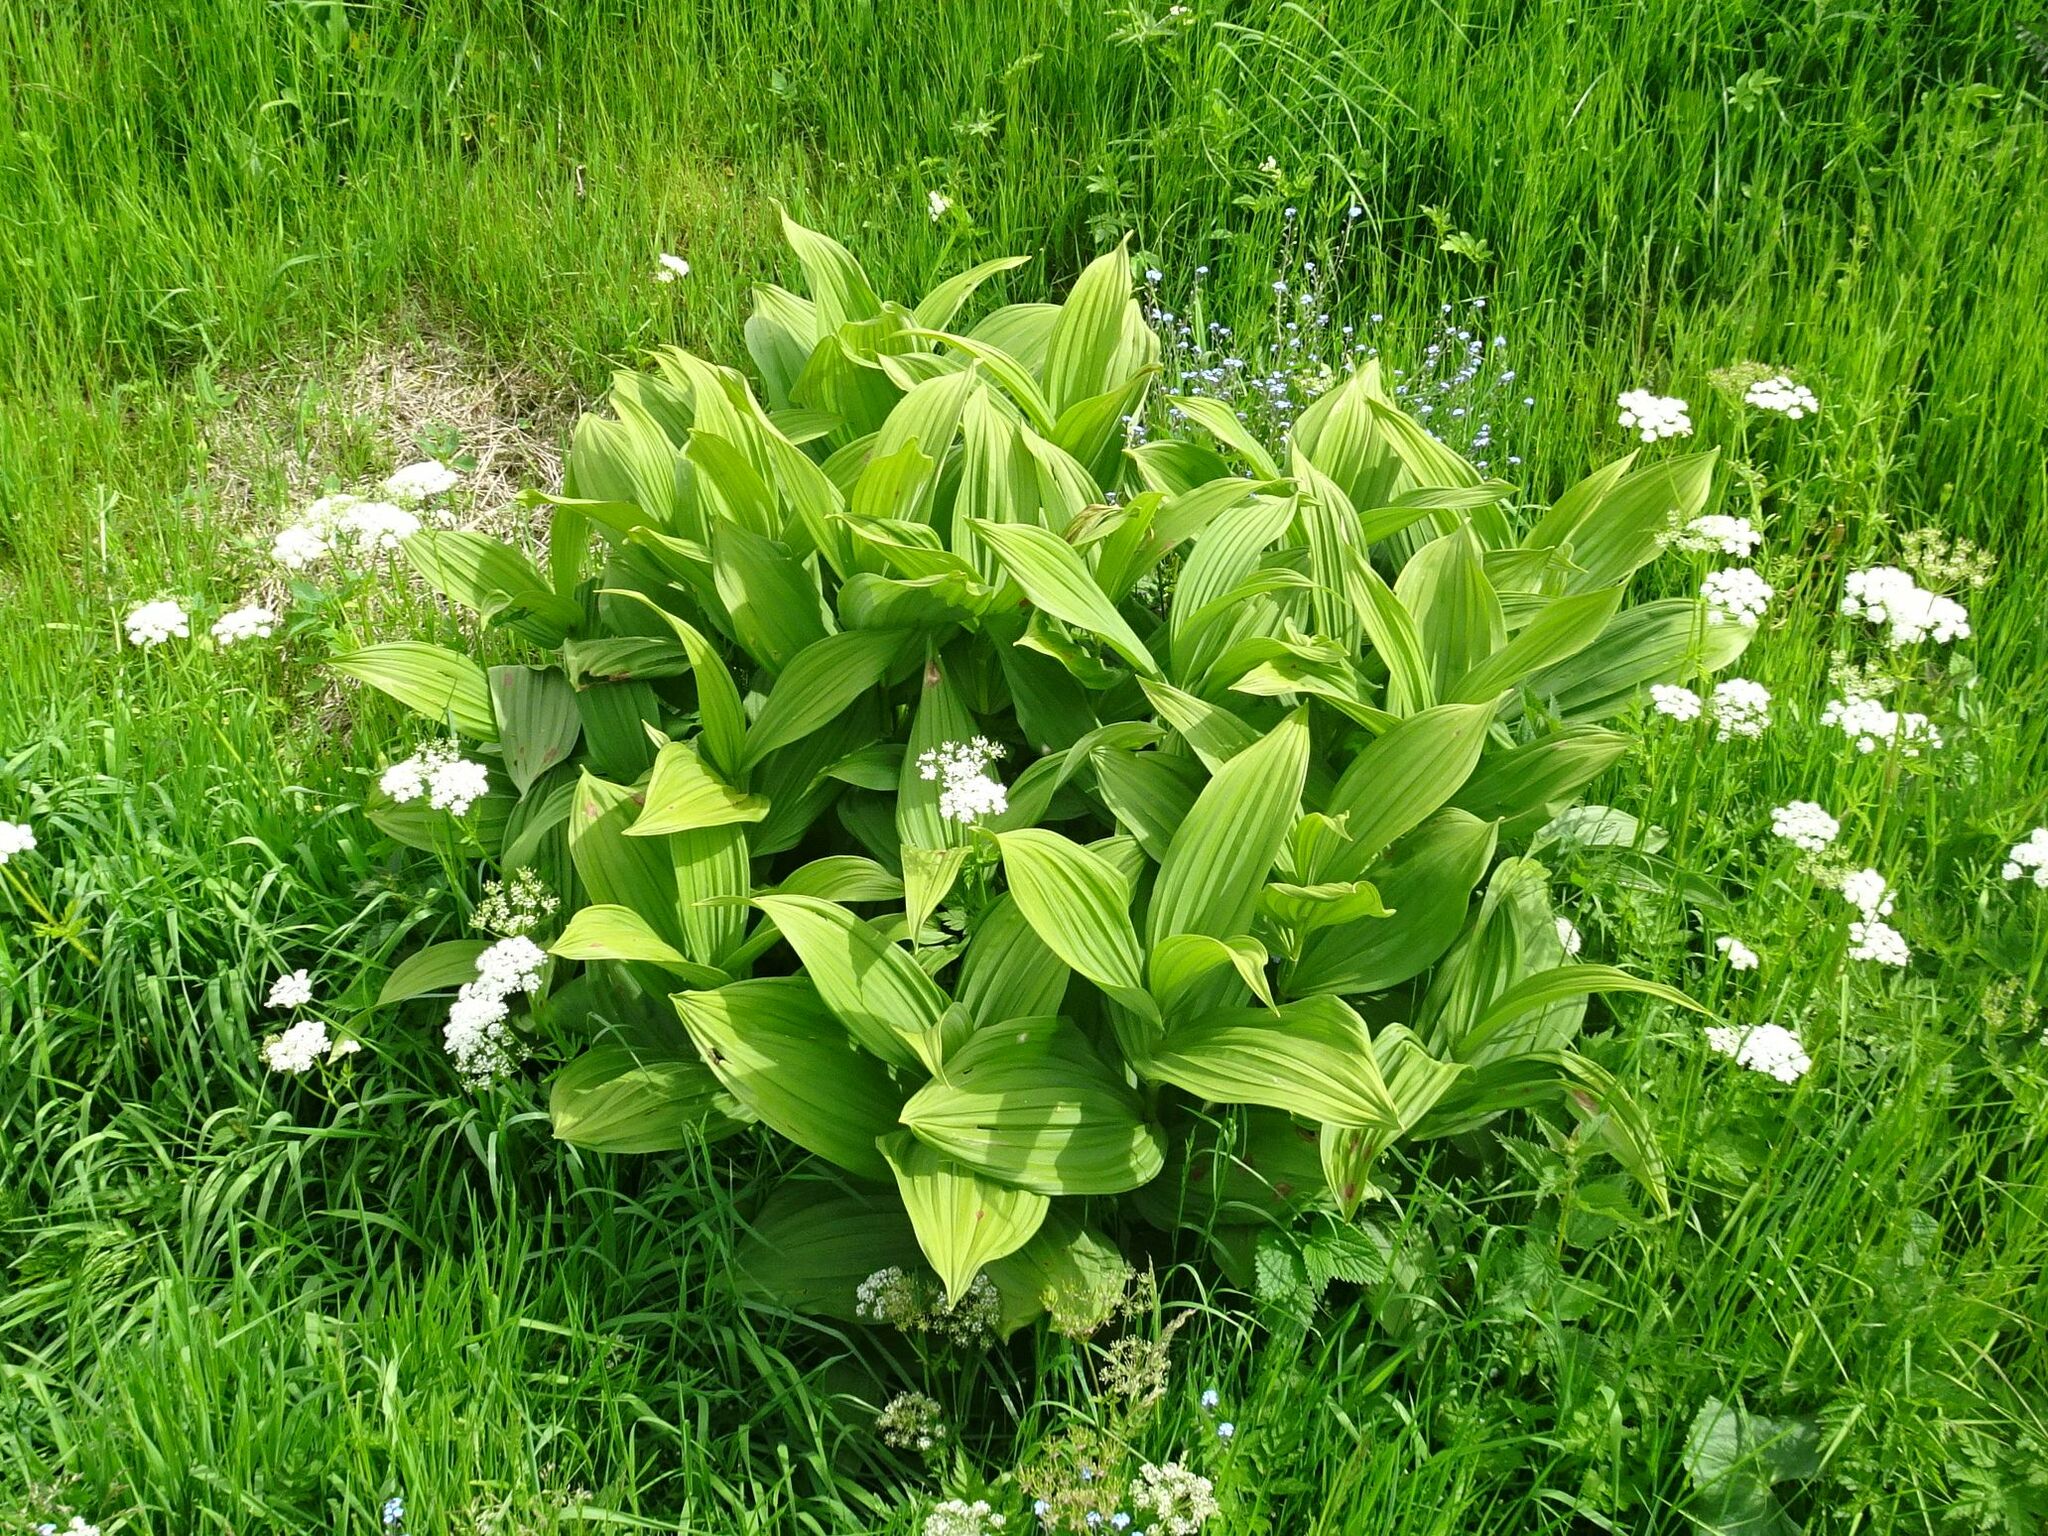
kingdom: Plantae
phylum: Tracheophyta
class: Liliopsida
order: Liliales
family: Melanthiaceae
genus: Veratrum
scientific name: Veratrum album
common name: White veratrum
